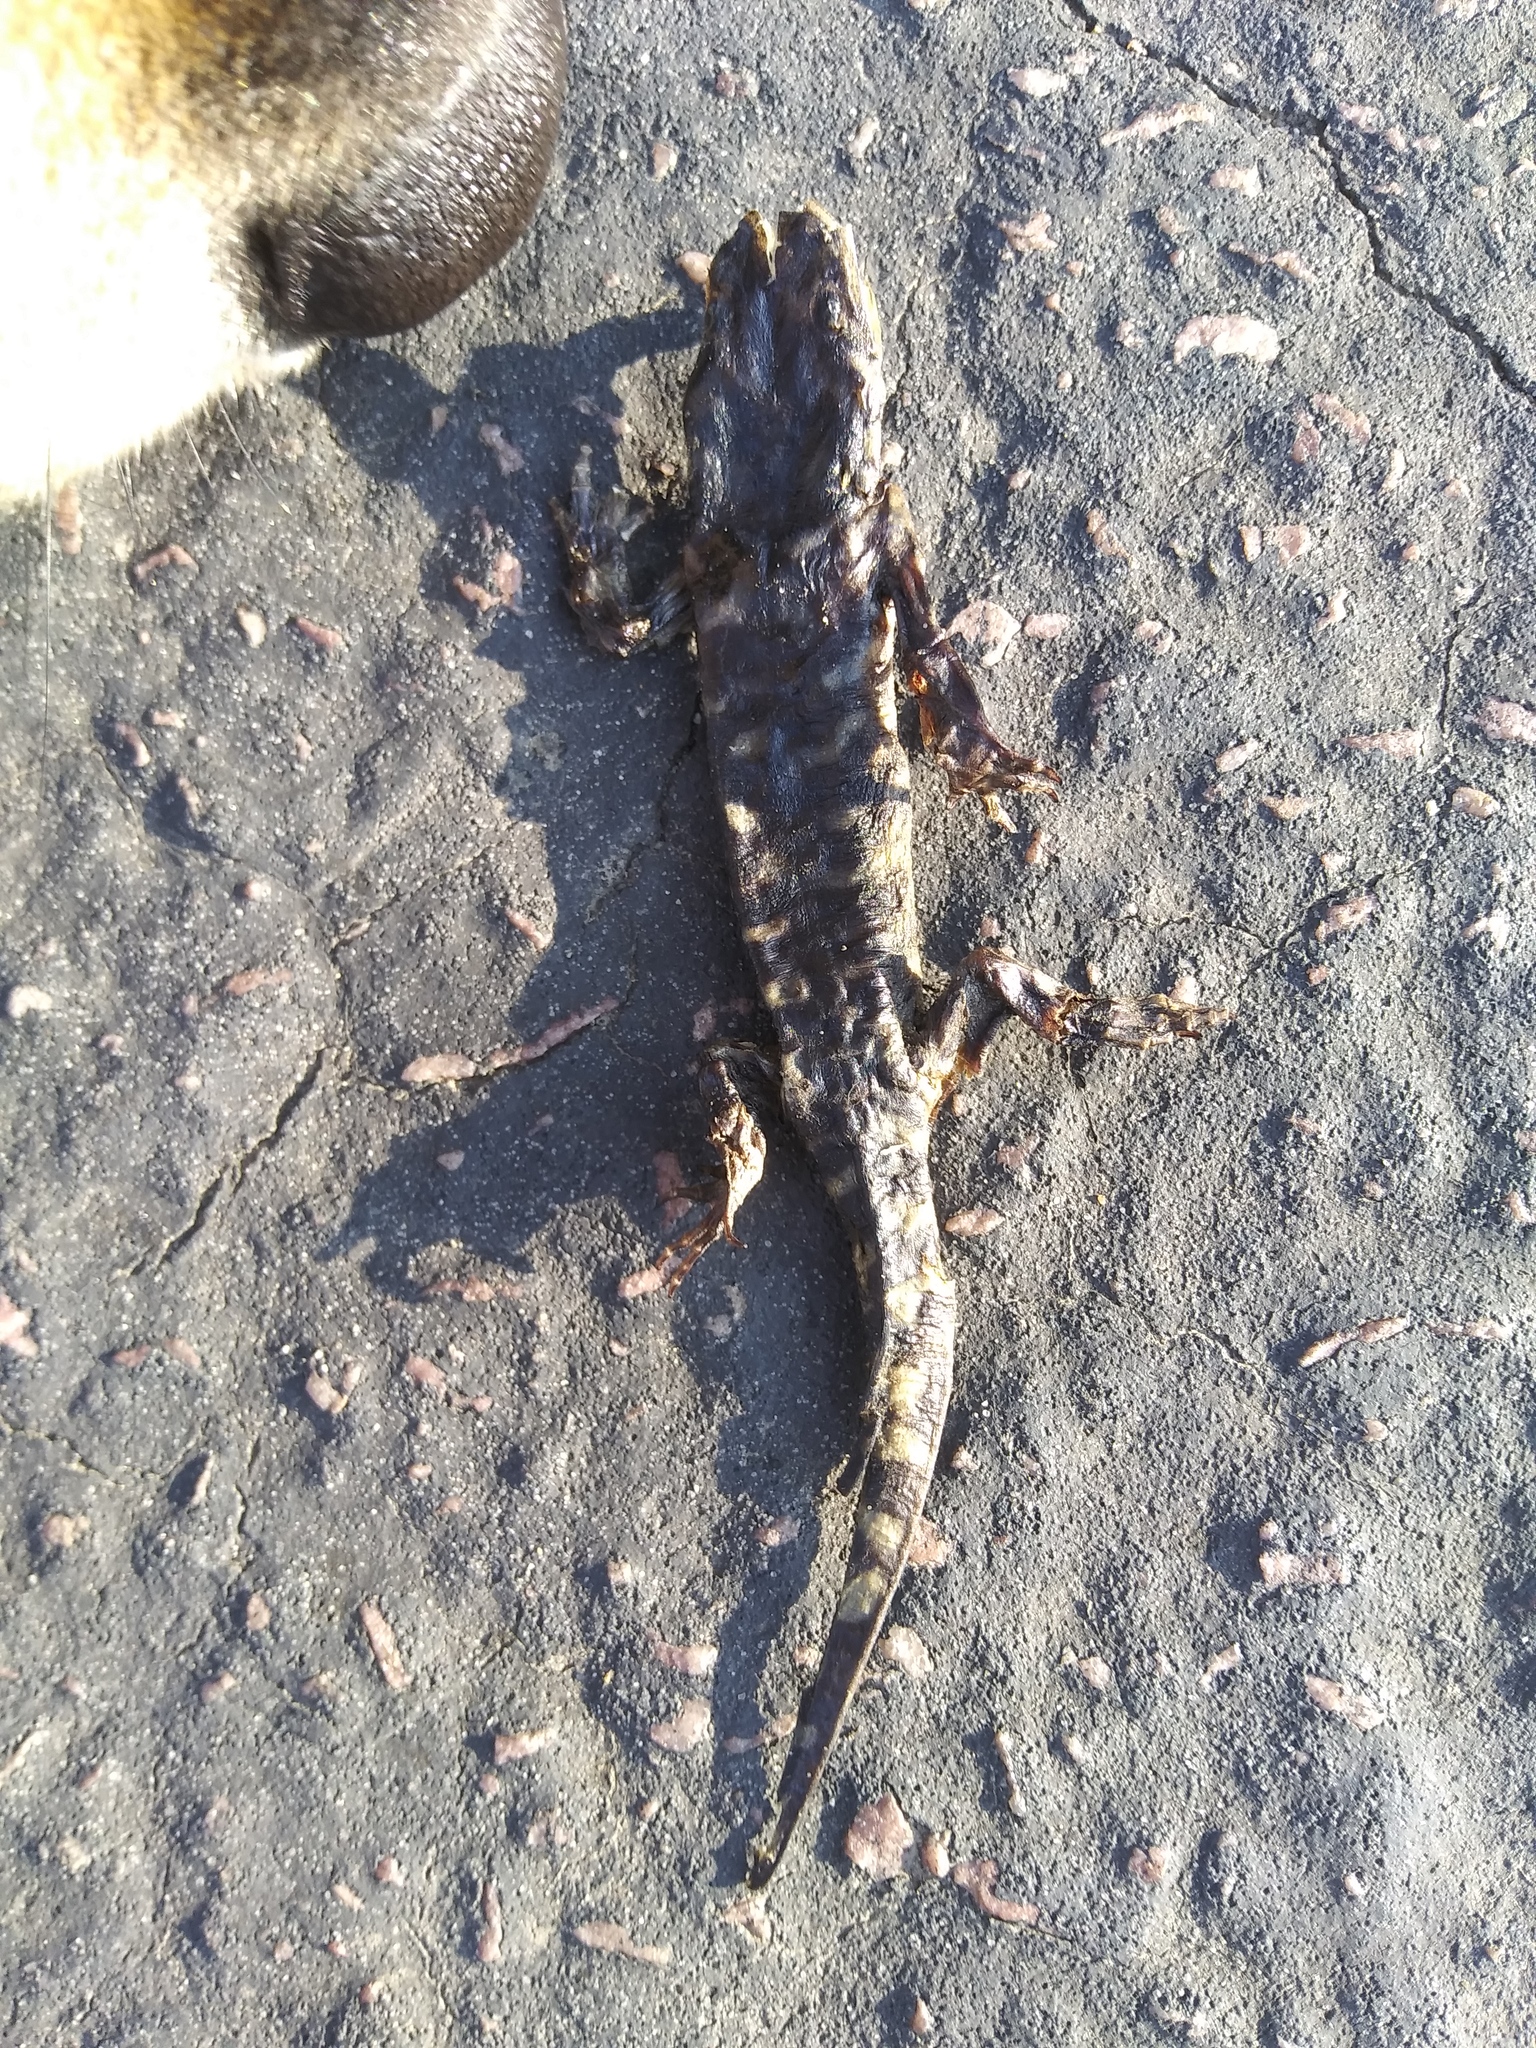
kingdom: Animalia
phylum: Chordata
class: Amphibia
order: Caudata
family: Ambystomatidae
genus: Ambystoma
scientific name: Ambystoma mavortium
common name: Western tiger salamander
